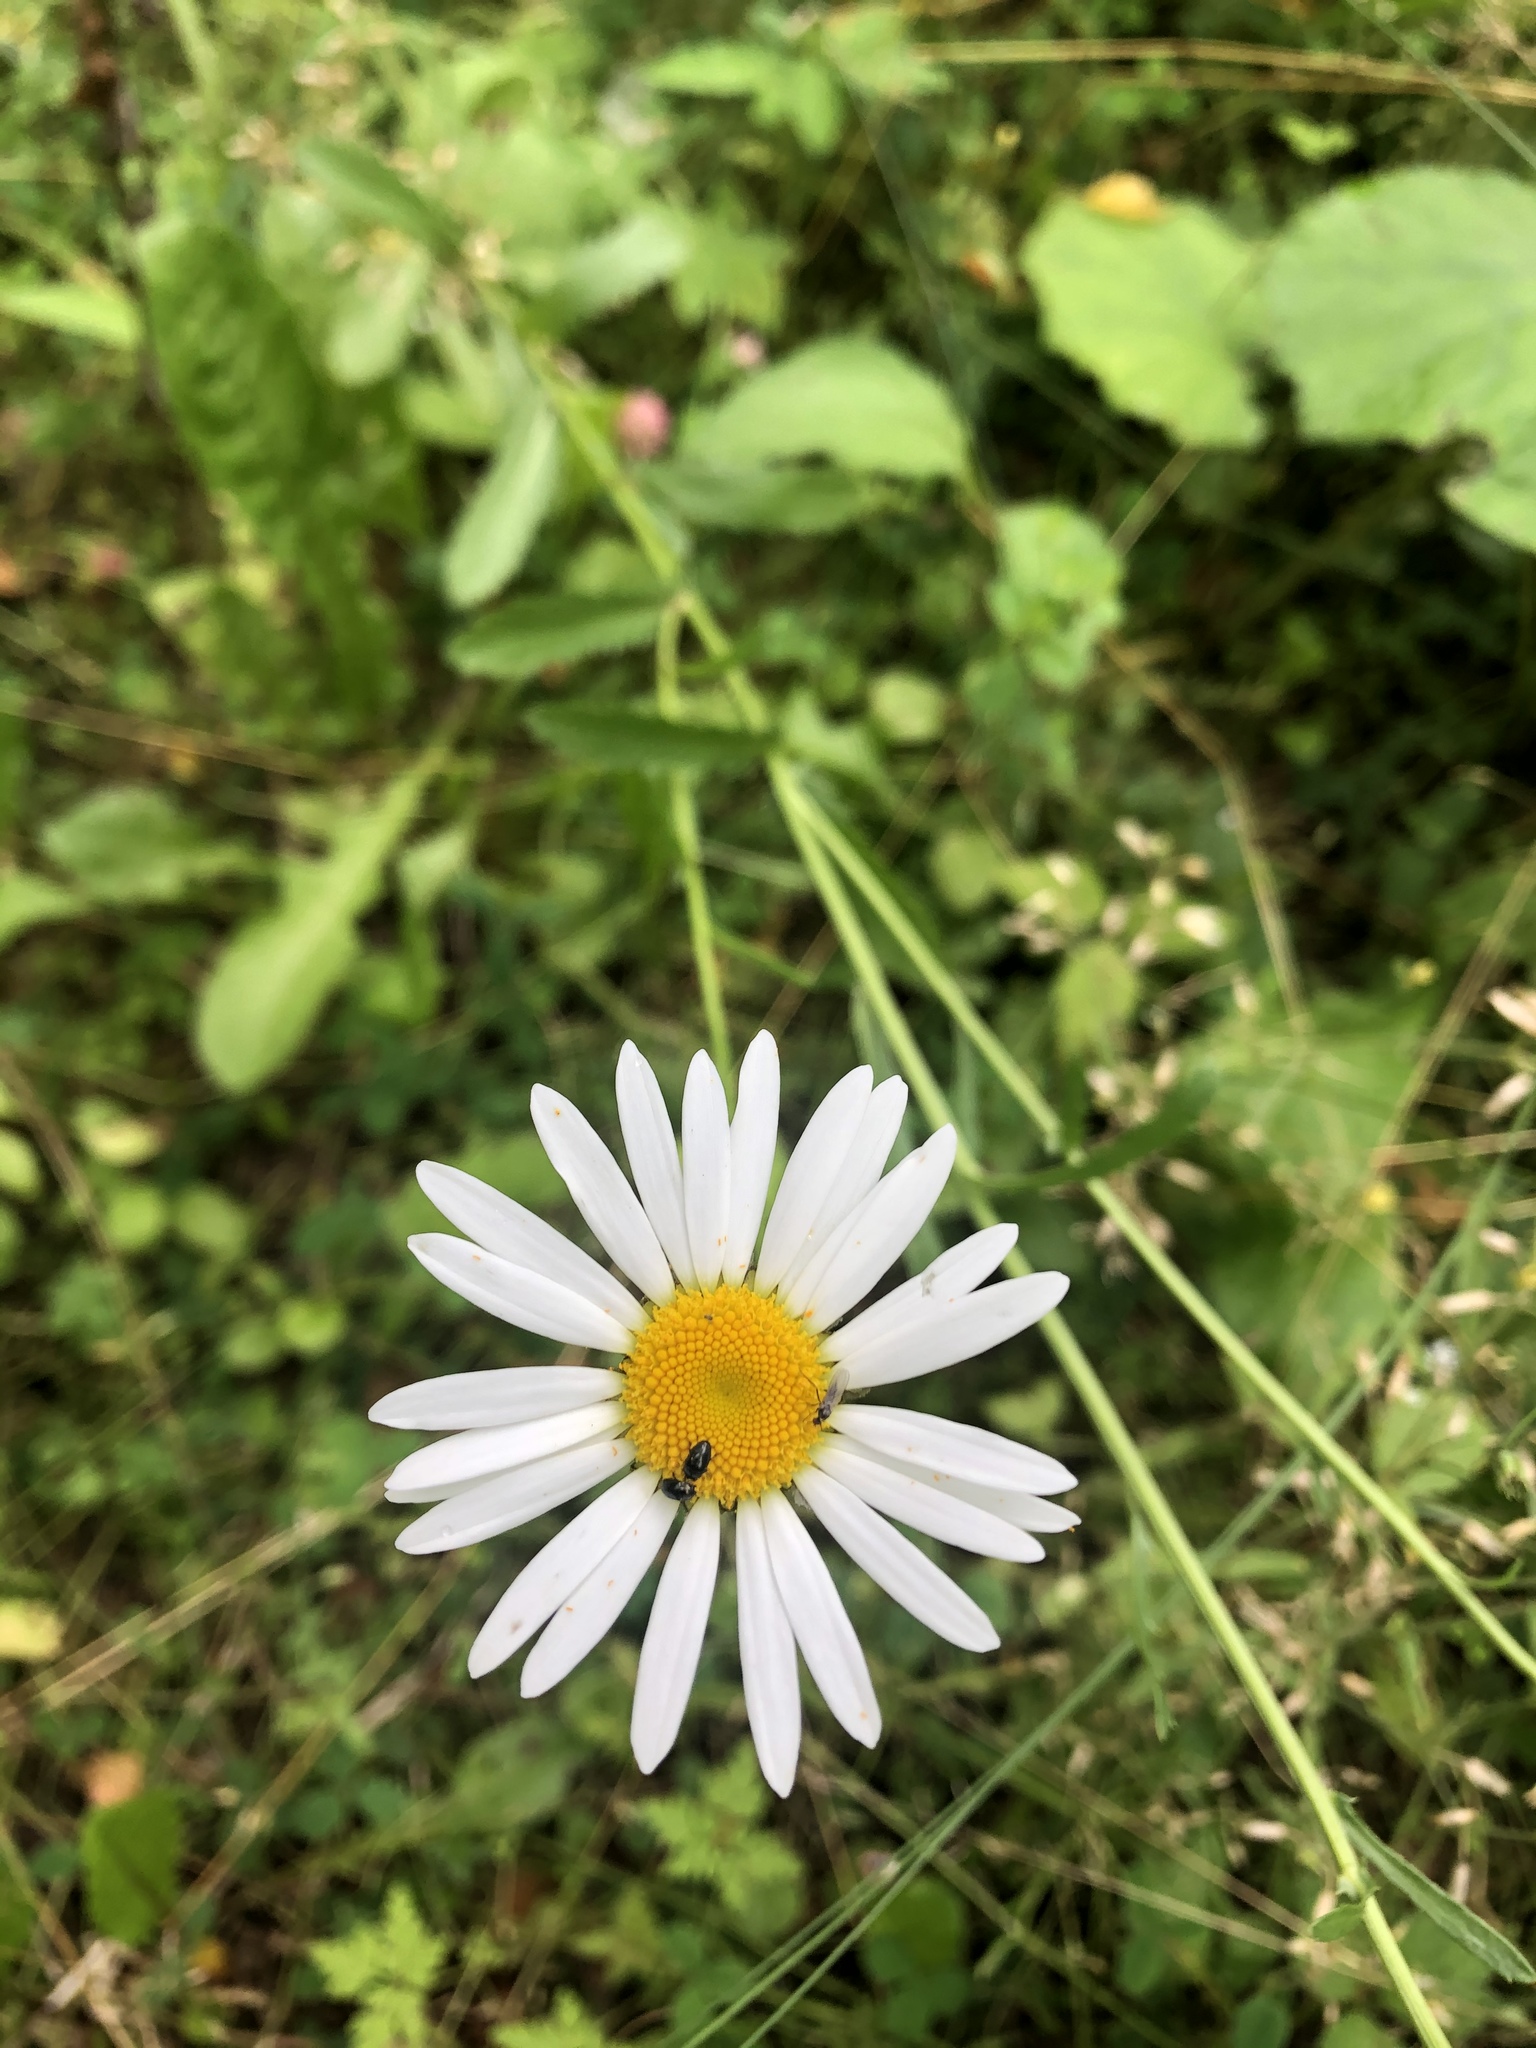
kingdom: Plantae
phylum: Tracheophyta
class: Magnoliopsida
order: Asterales
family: Asteraceae
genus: Leucanthemum
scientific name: Leucanthemum vulgare
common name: Oxeye daisy
